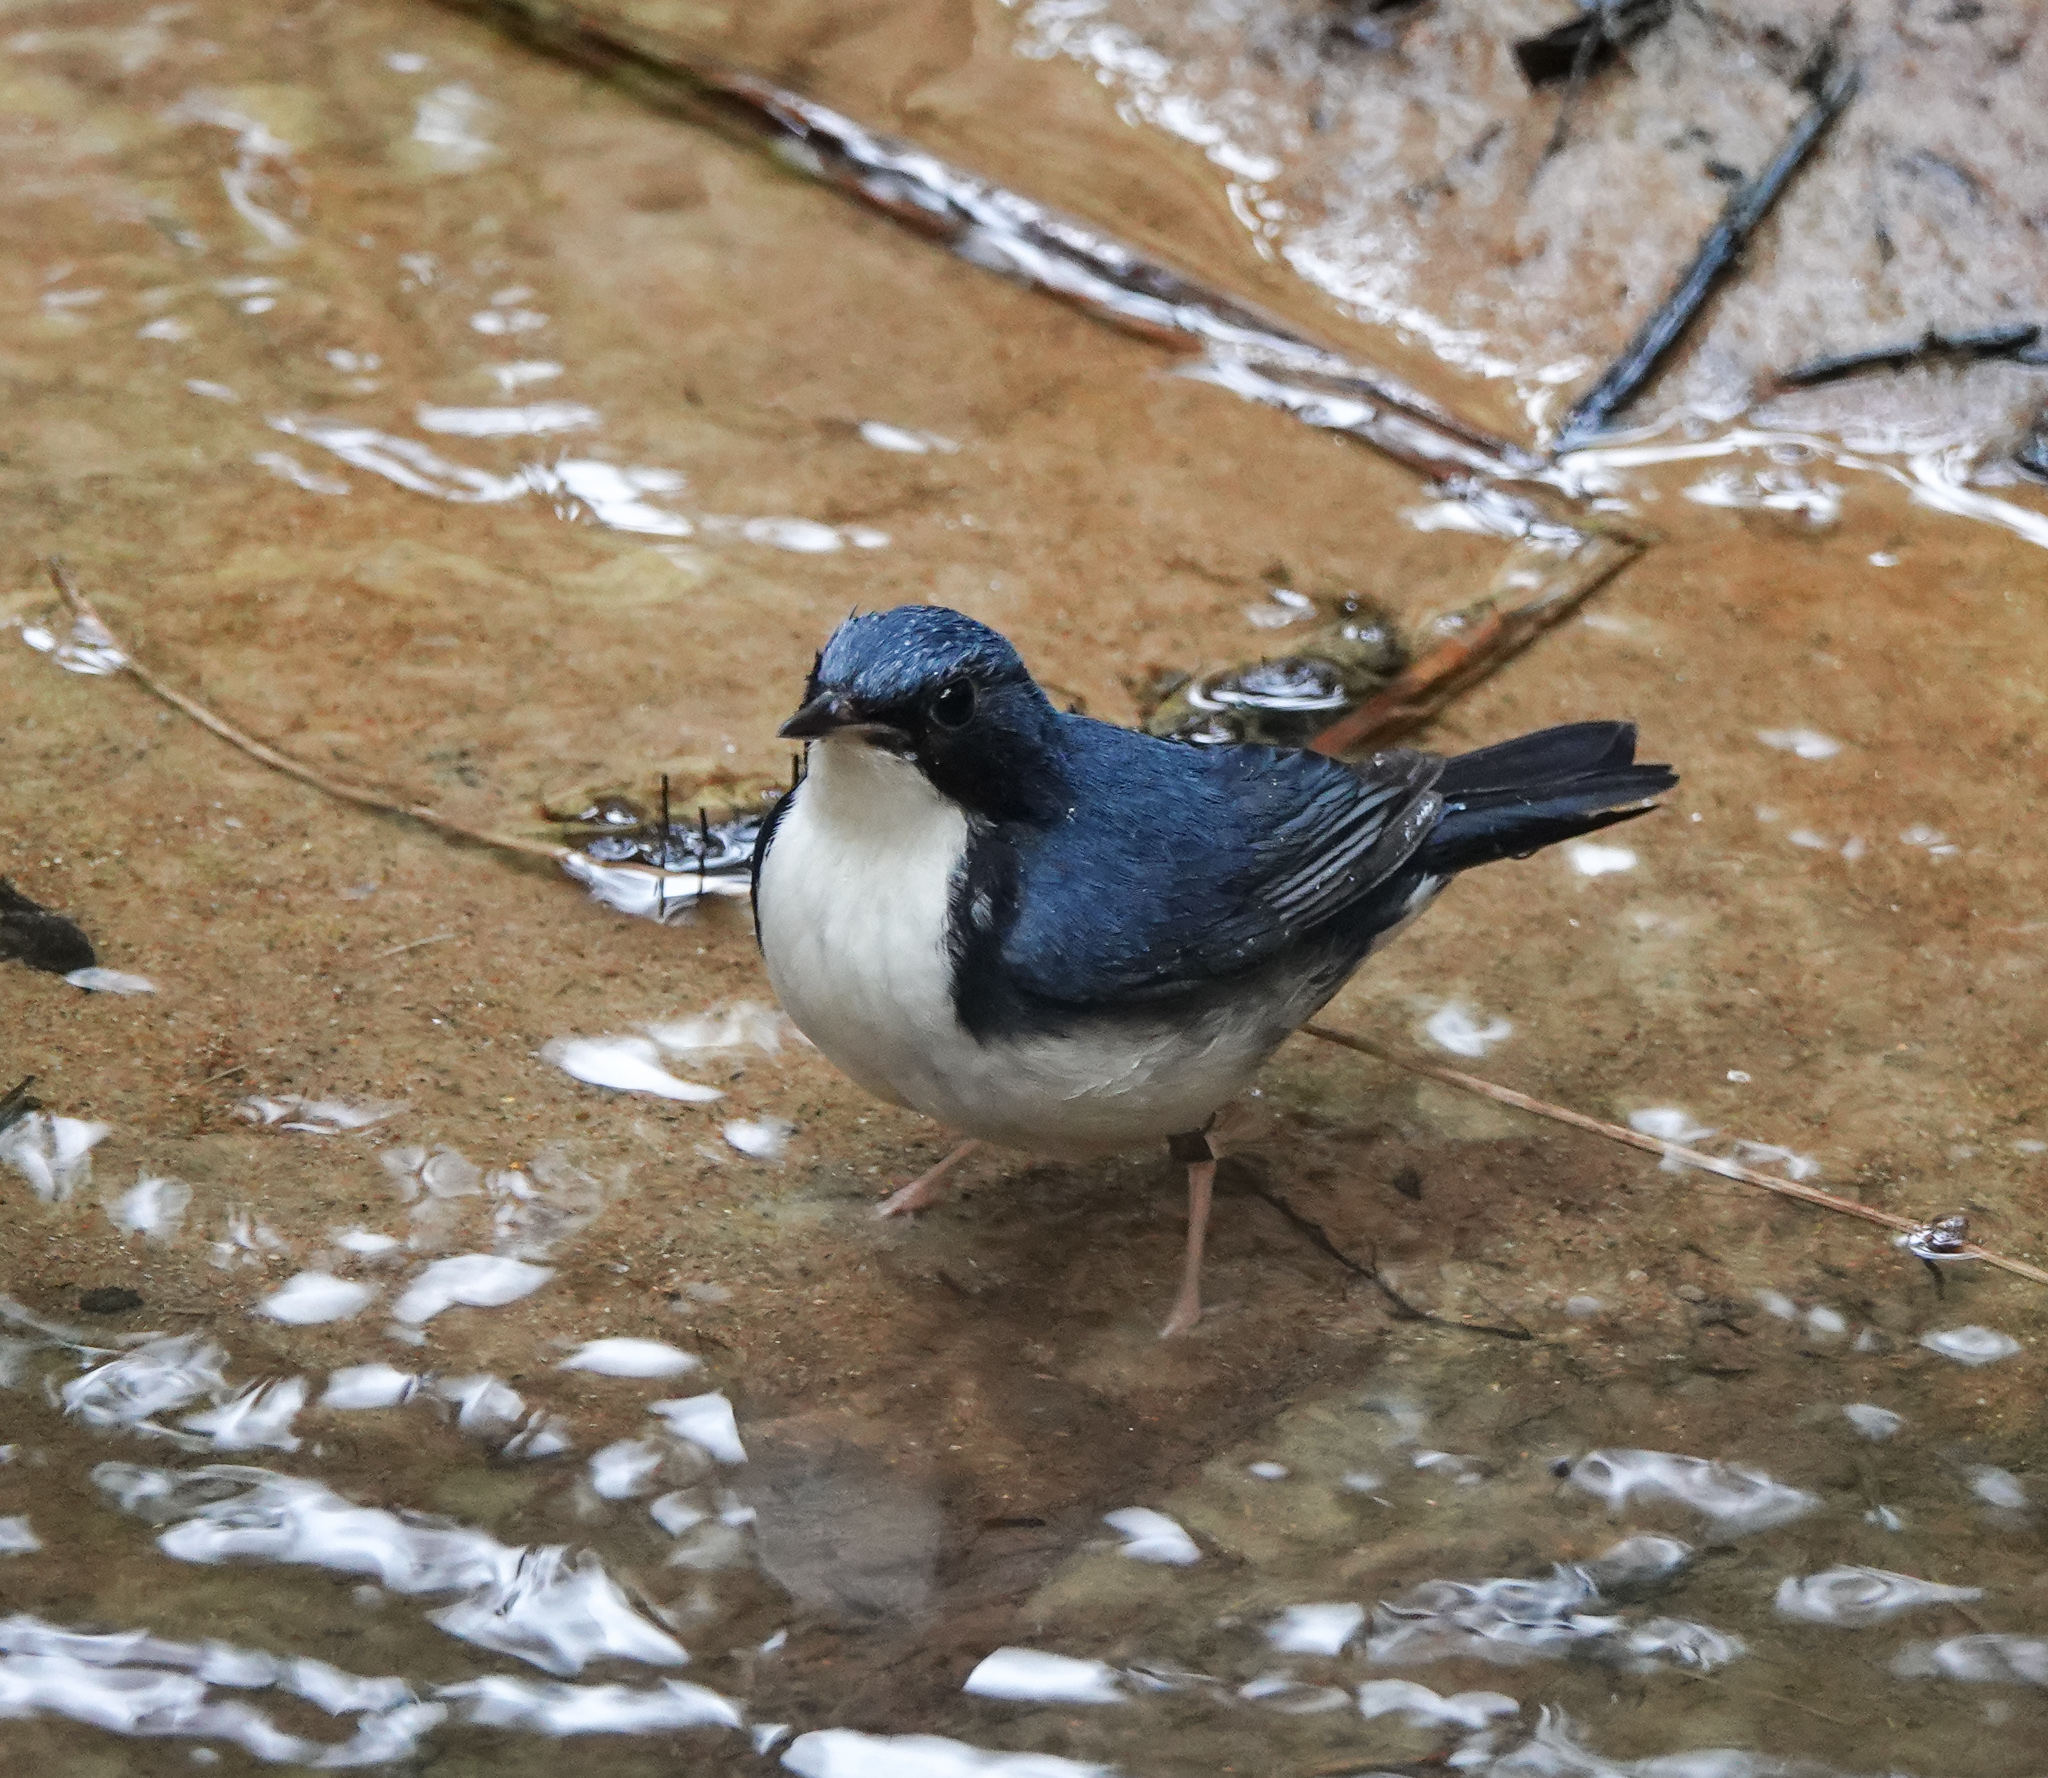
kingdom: Animalia
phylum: Chordata
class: Aves
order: Passeriformes
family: Muscicapidae
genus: Luscinia
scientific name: Luscinia cyane
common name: Siberian blue robin
